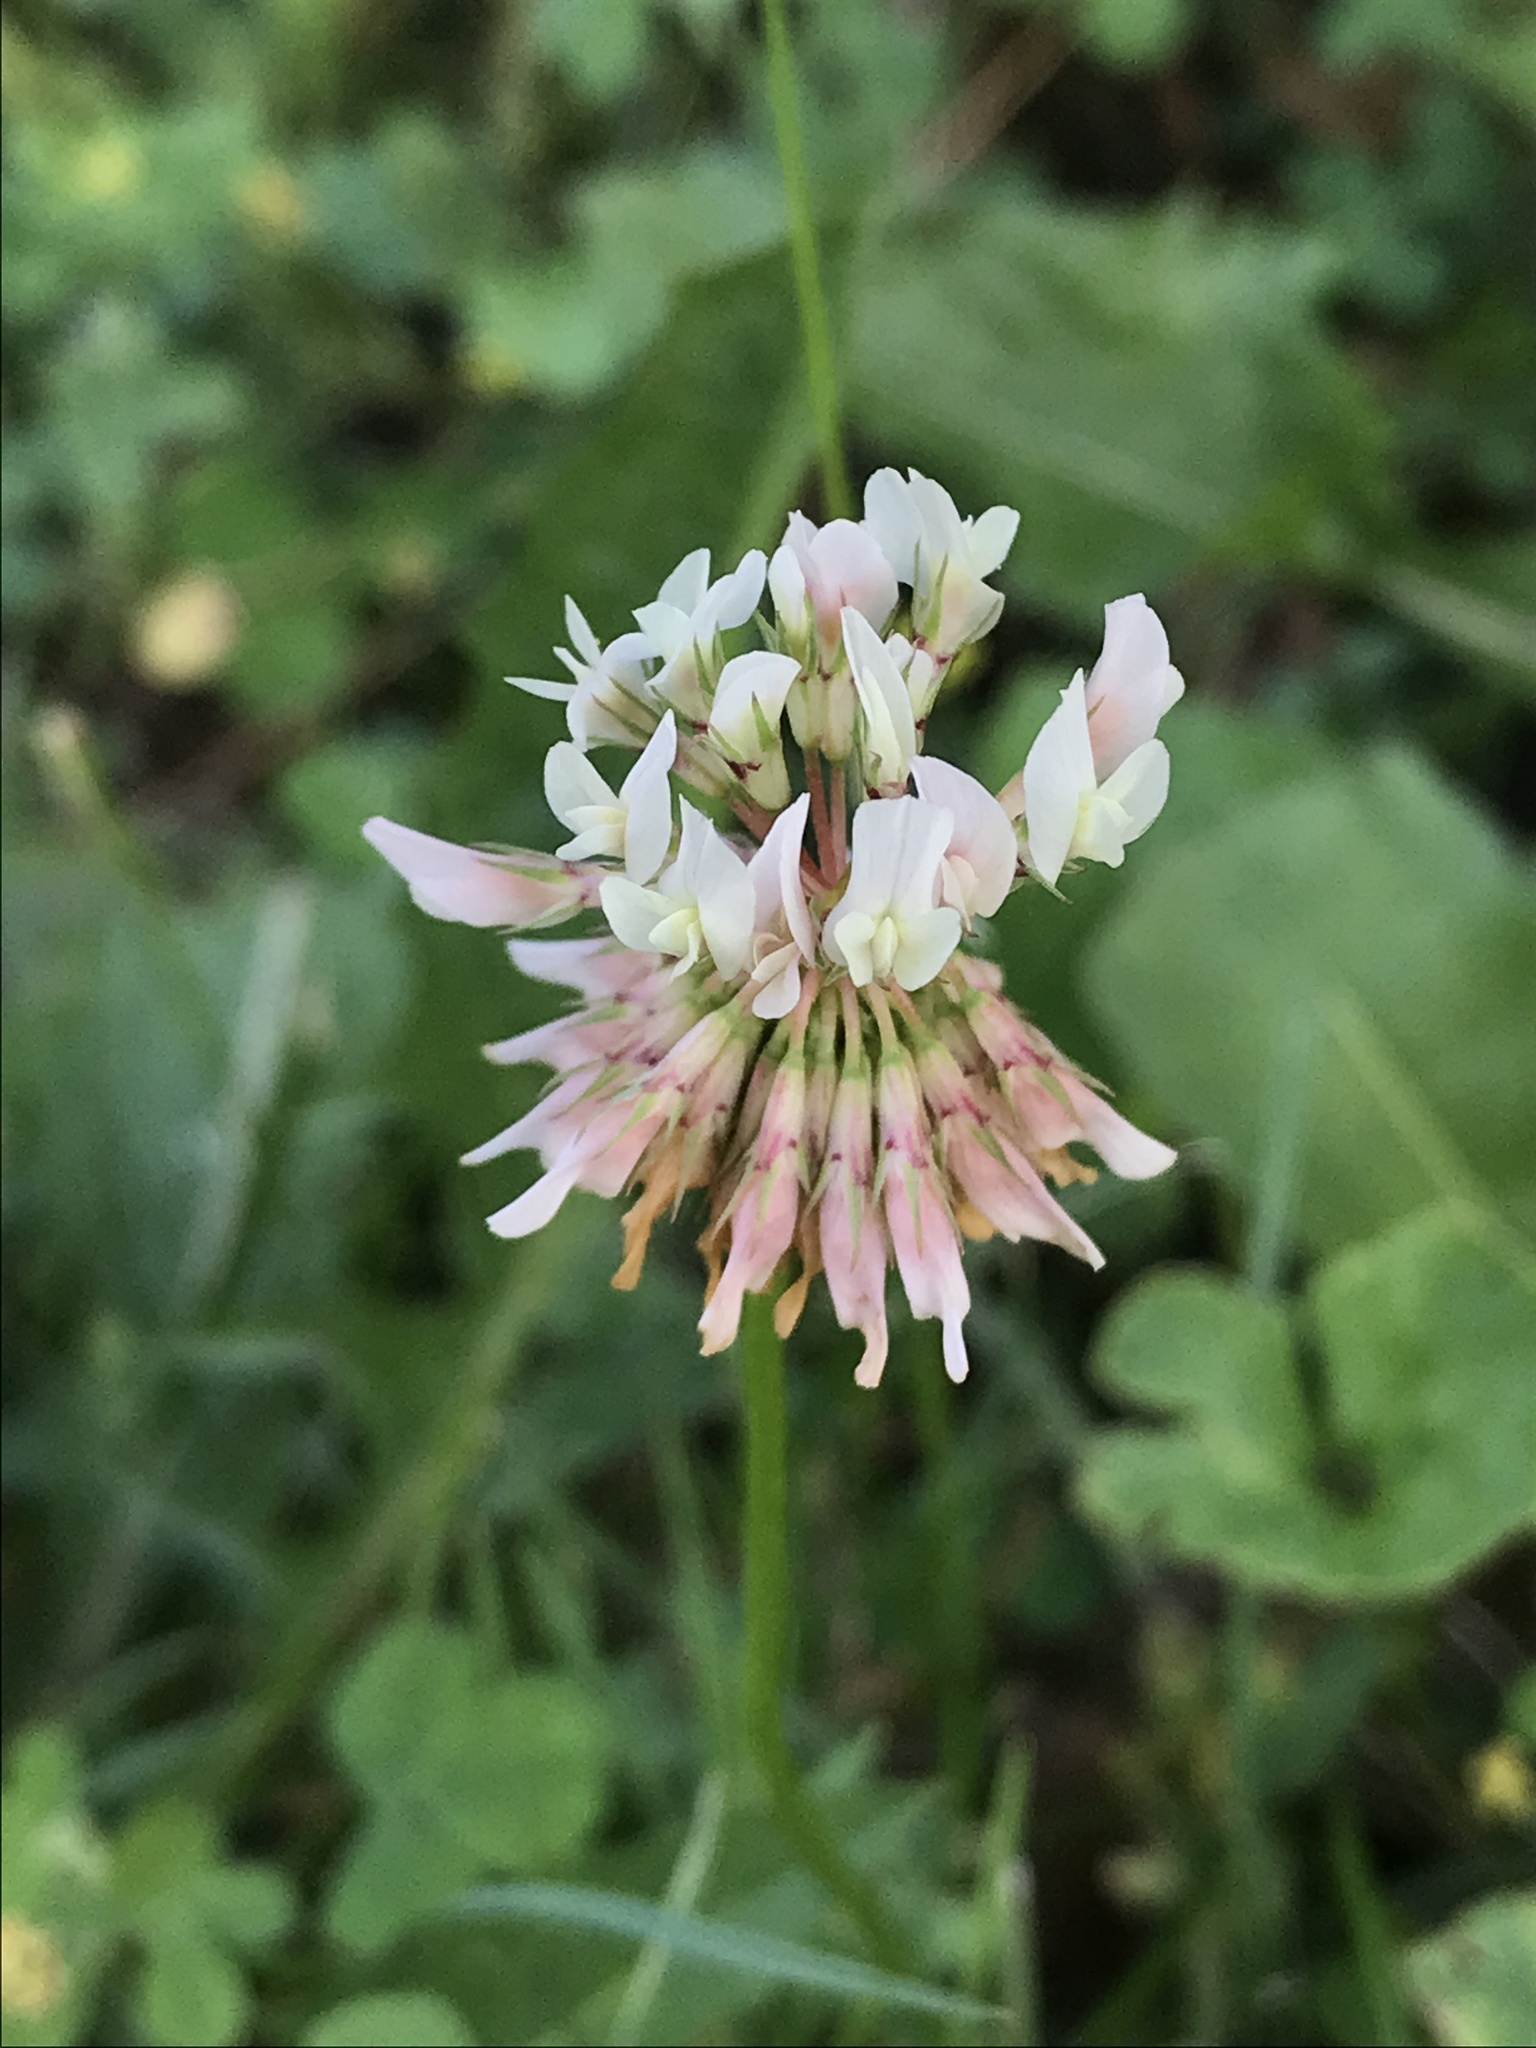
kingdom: Plantae
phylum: Tracheophyta
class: Magnoliopsida
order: Fabales
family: Fabaceae
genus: Trifolium
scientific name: Trifolium repens
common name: White clover
